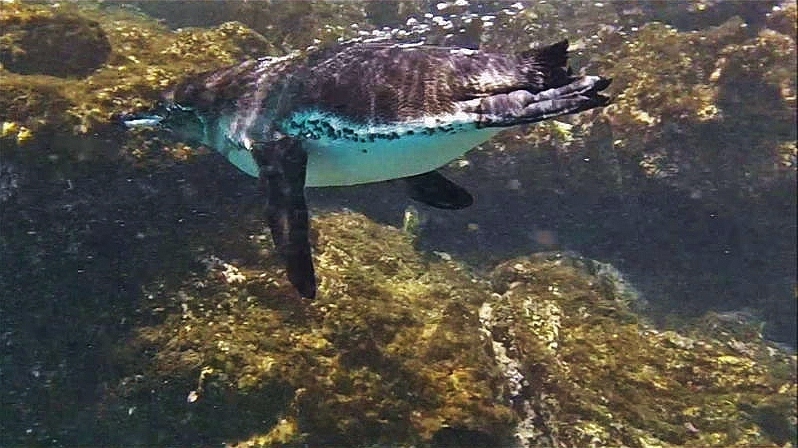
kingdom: Animalia
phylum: Chordata
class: Aves
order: Sphenisciformes
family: Spheniscidae
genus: Spheniscus
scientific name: Spheniscus mendiculus
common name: Galapagos penguin
